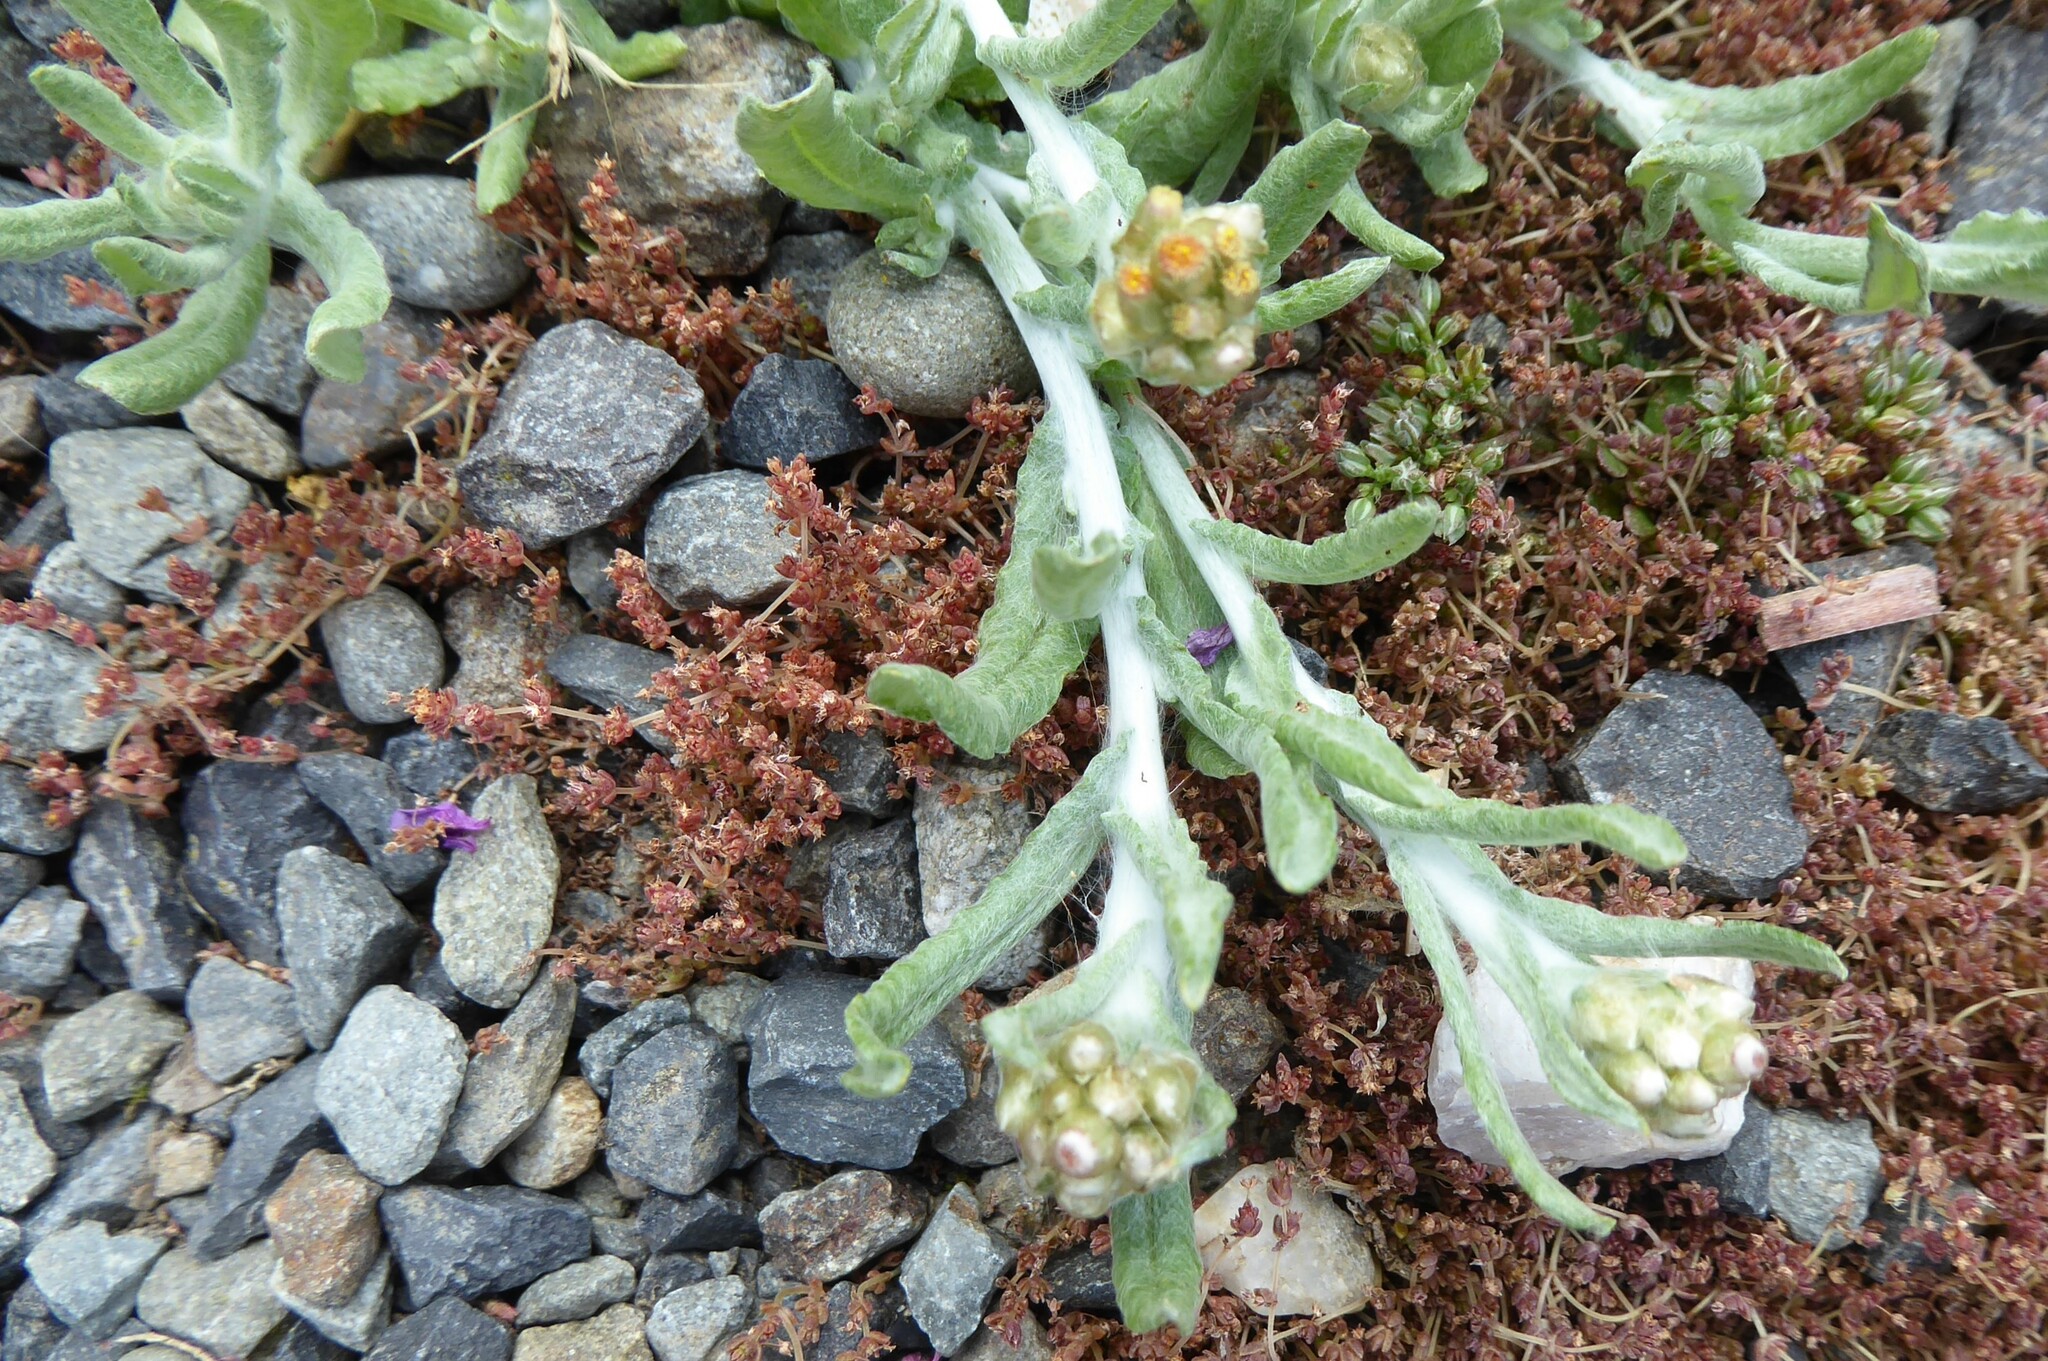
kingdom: Plantae
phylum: Tracheophyta
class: Magnoliopsida
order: Asterales
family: Asteraceae
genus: Helichrysum
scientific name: Helichrysum luteoalbum
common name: Daisy
